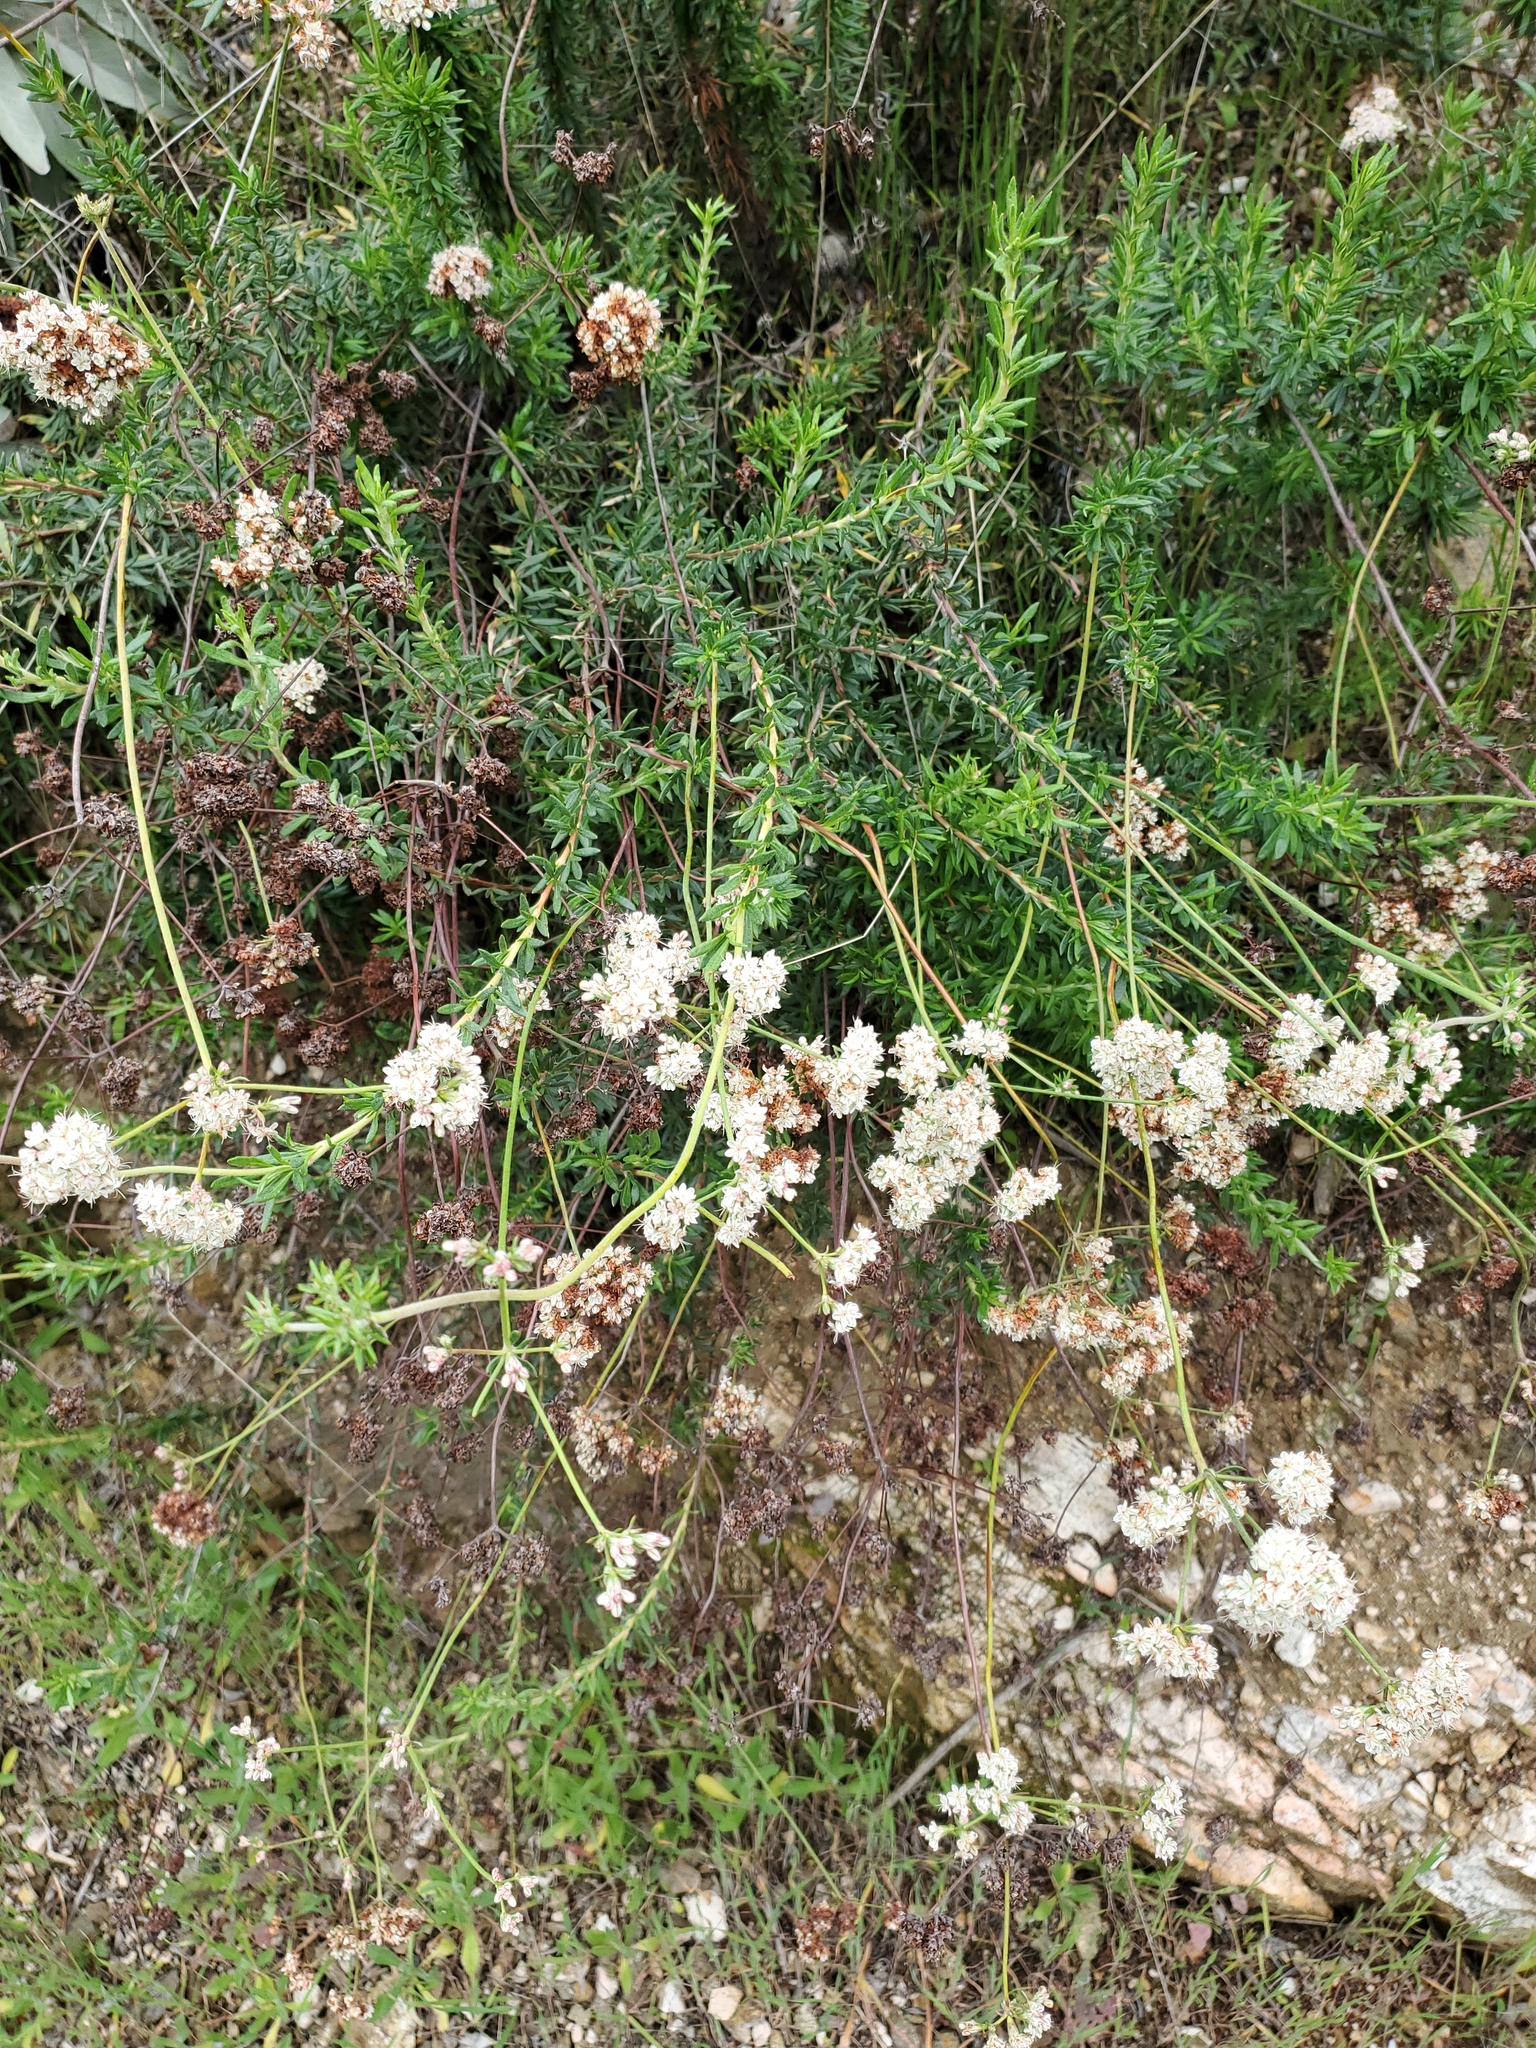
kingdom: Plantae
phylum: Tracheophyta
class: Magnoliopsida
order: Caryophyllales
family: Polygonaceae
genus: Eriogonum
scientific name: Eriogonum fasciculatum
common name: California wild buckwheat
